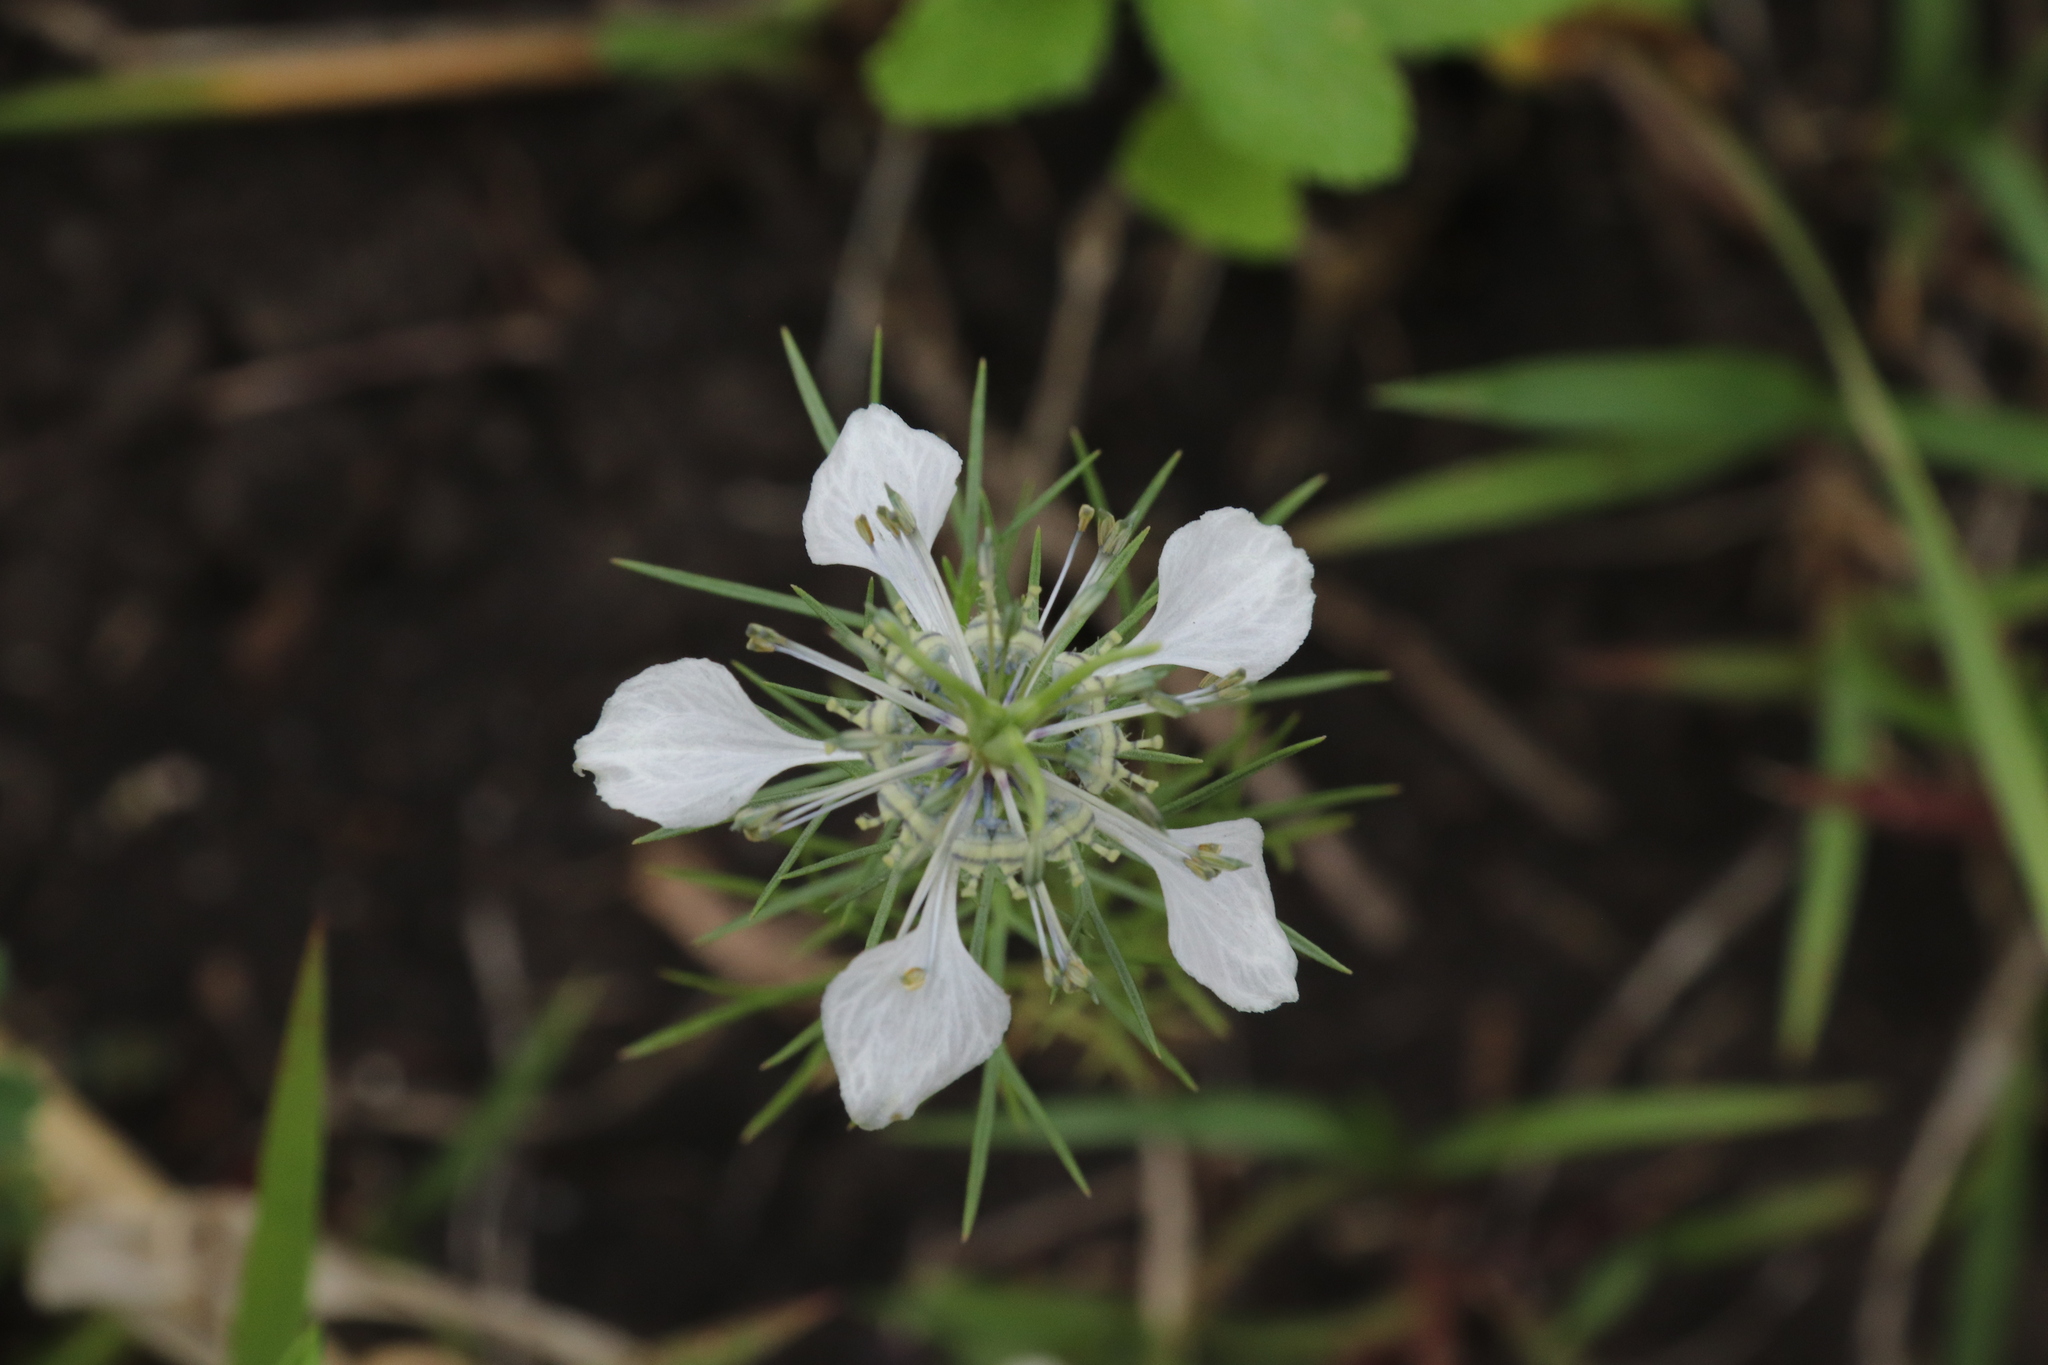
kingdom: Plantae
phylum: Tracheophyta
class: Magnoliopsida
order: Ranunculales
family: Ranunculaceae
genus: Nigella
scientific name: Nigella arvensis
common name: Wild fennel-flower
